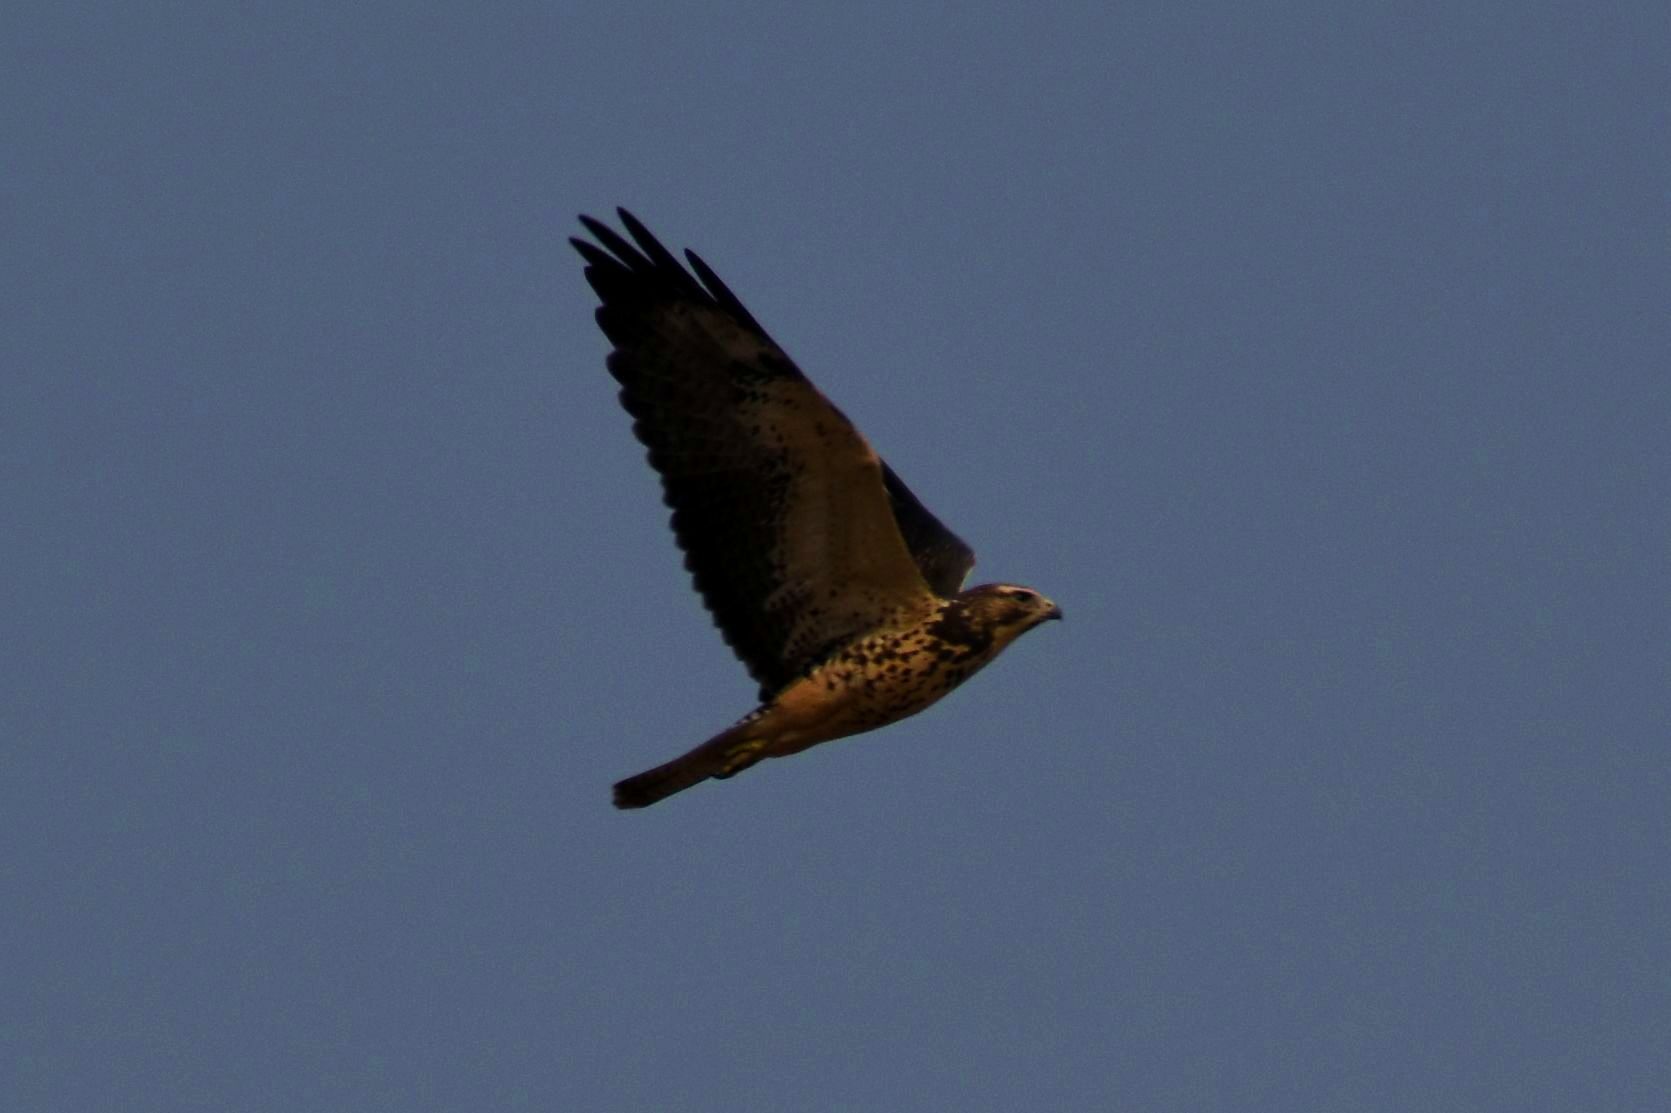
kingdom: Animalia
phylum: Chordata
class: Aves
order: Accipitriformes
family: Accipitridae
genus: Buteo
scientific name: Buteo swainsoni
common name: Swainson's hawk
